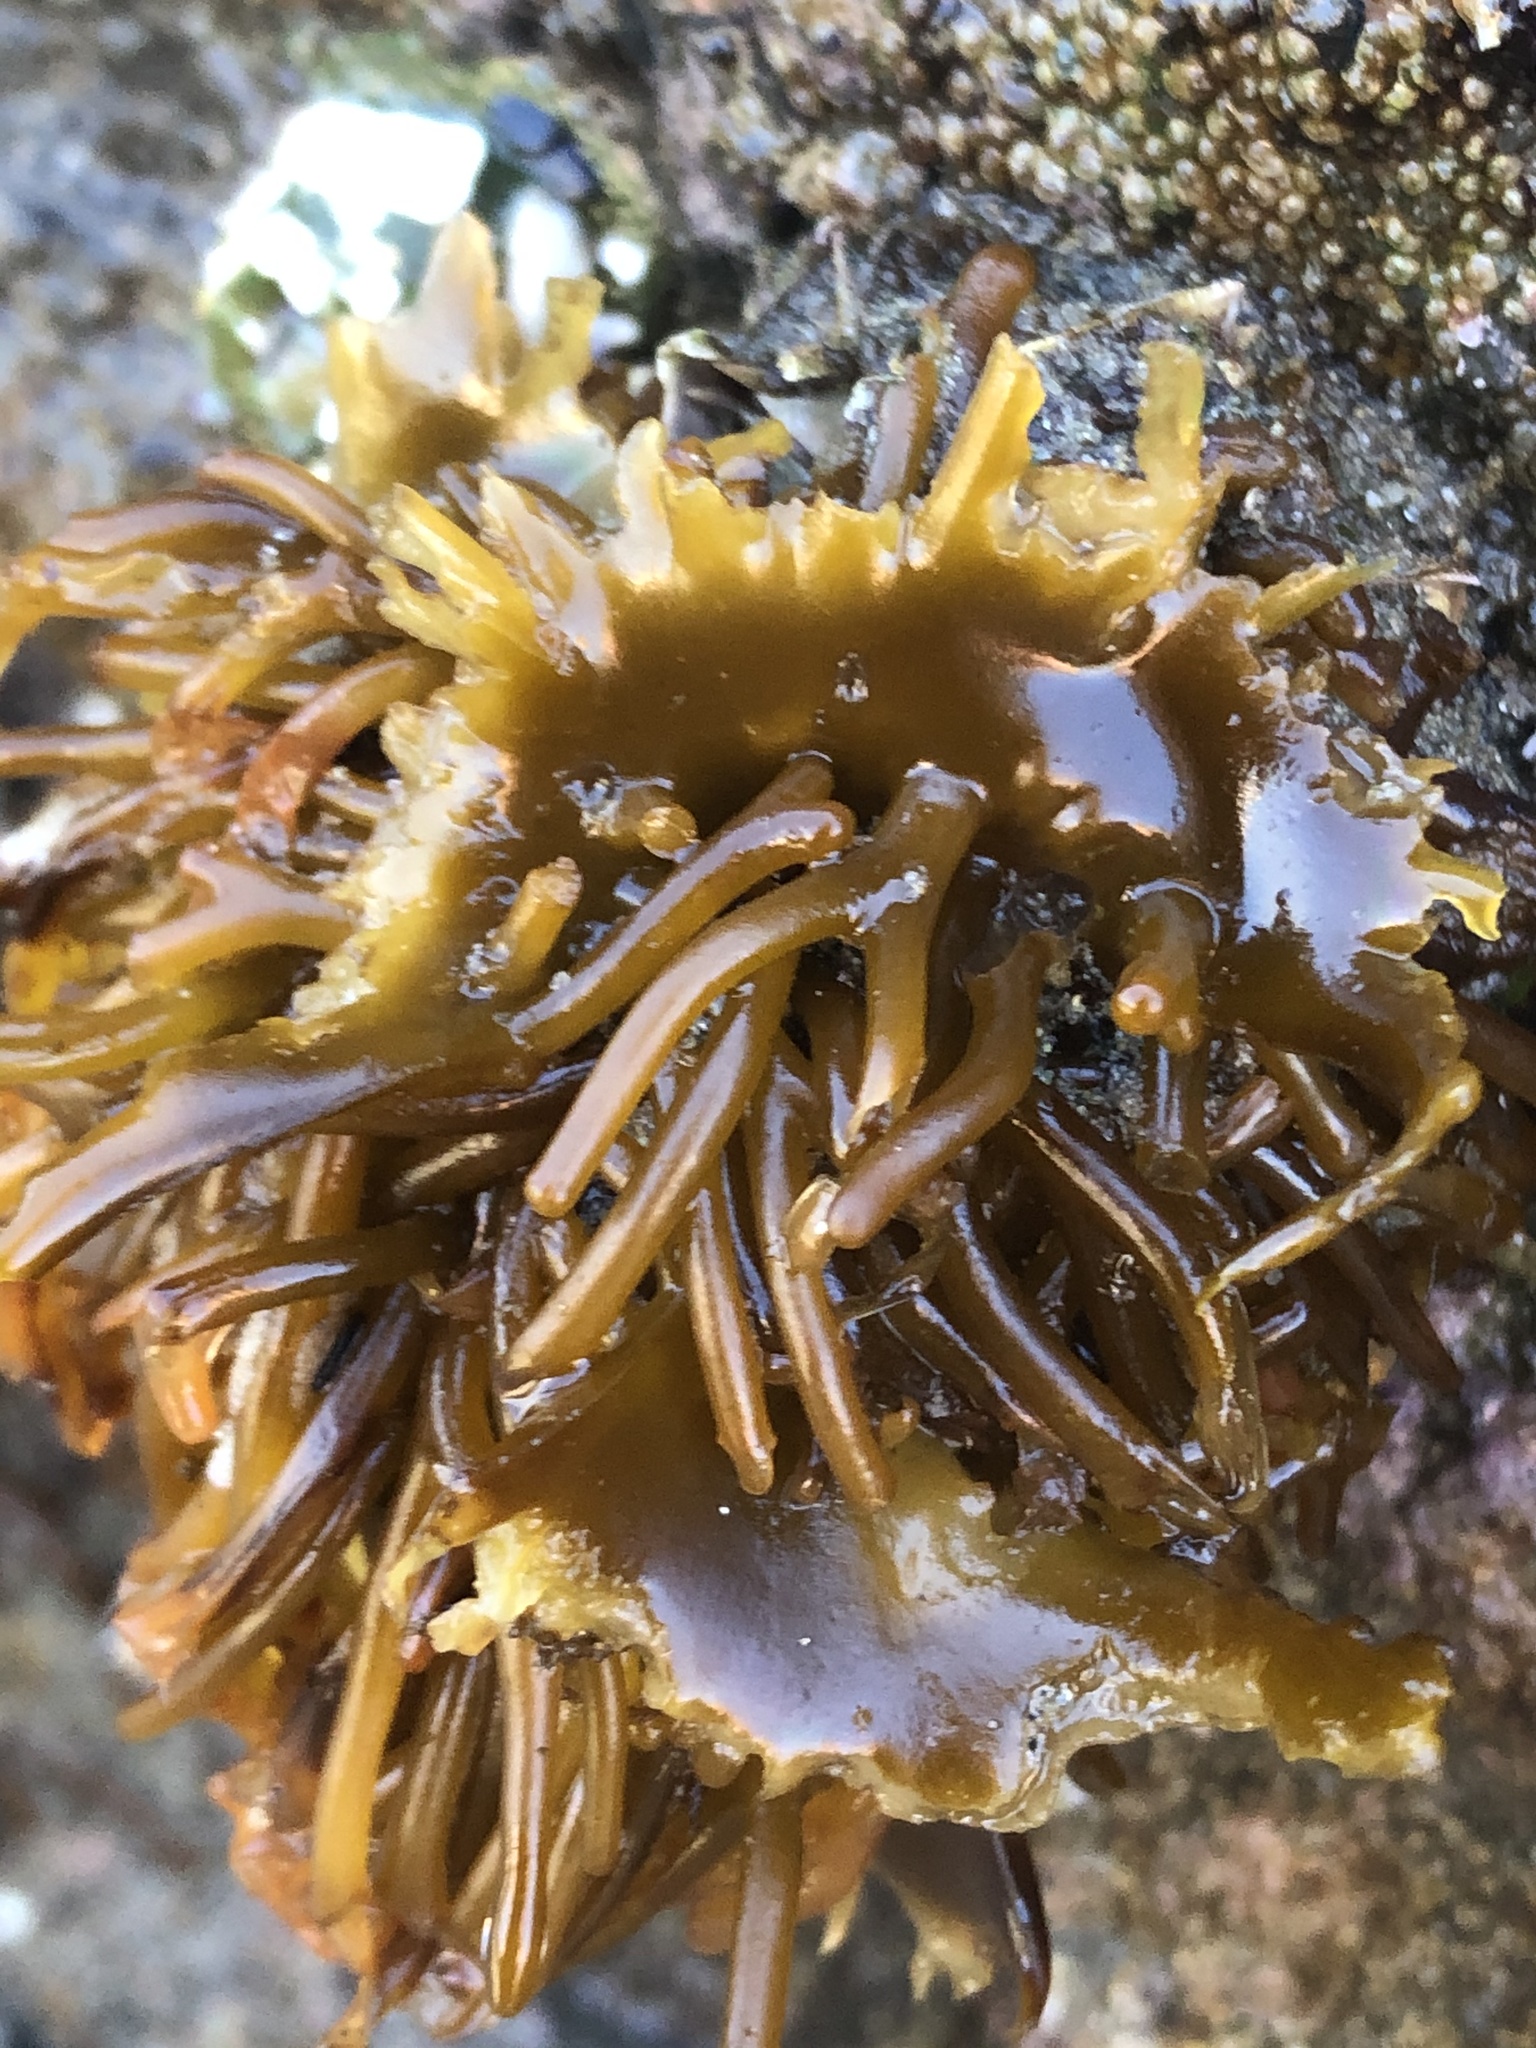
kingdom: Chromista
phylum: Ochrophyta
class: Phaeophyceae
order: Laminariales
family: Laminariaceae
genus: Hedophyllum
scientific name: Hedophyllum sessile
